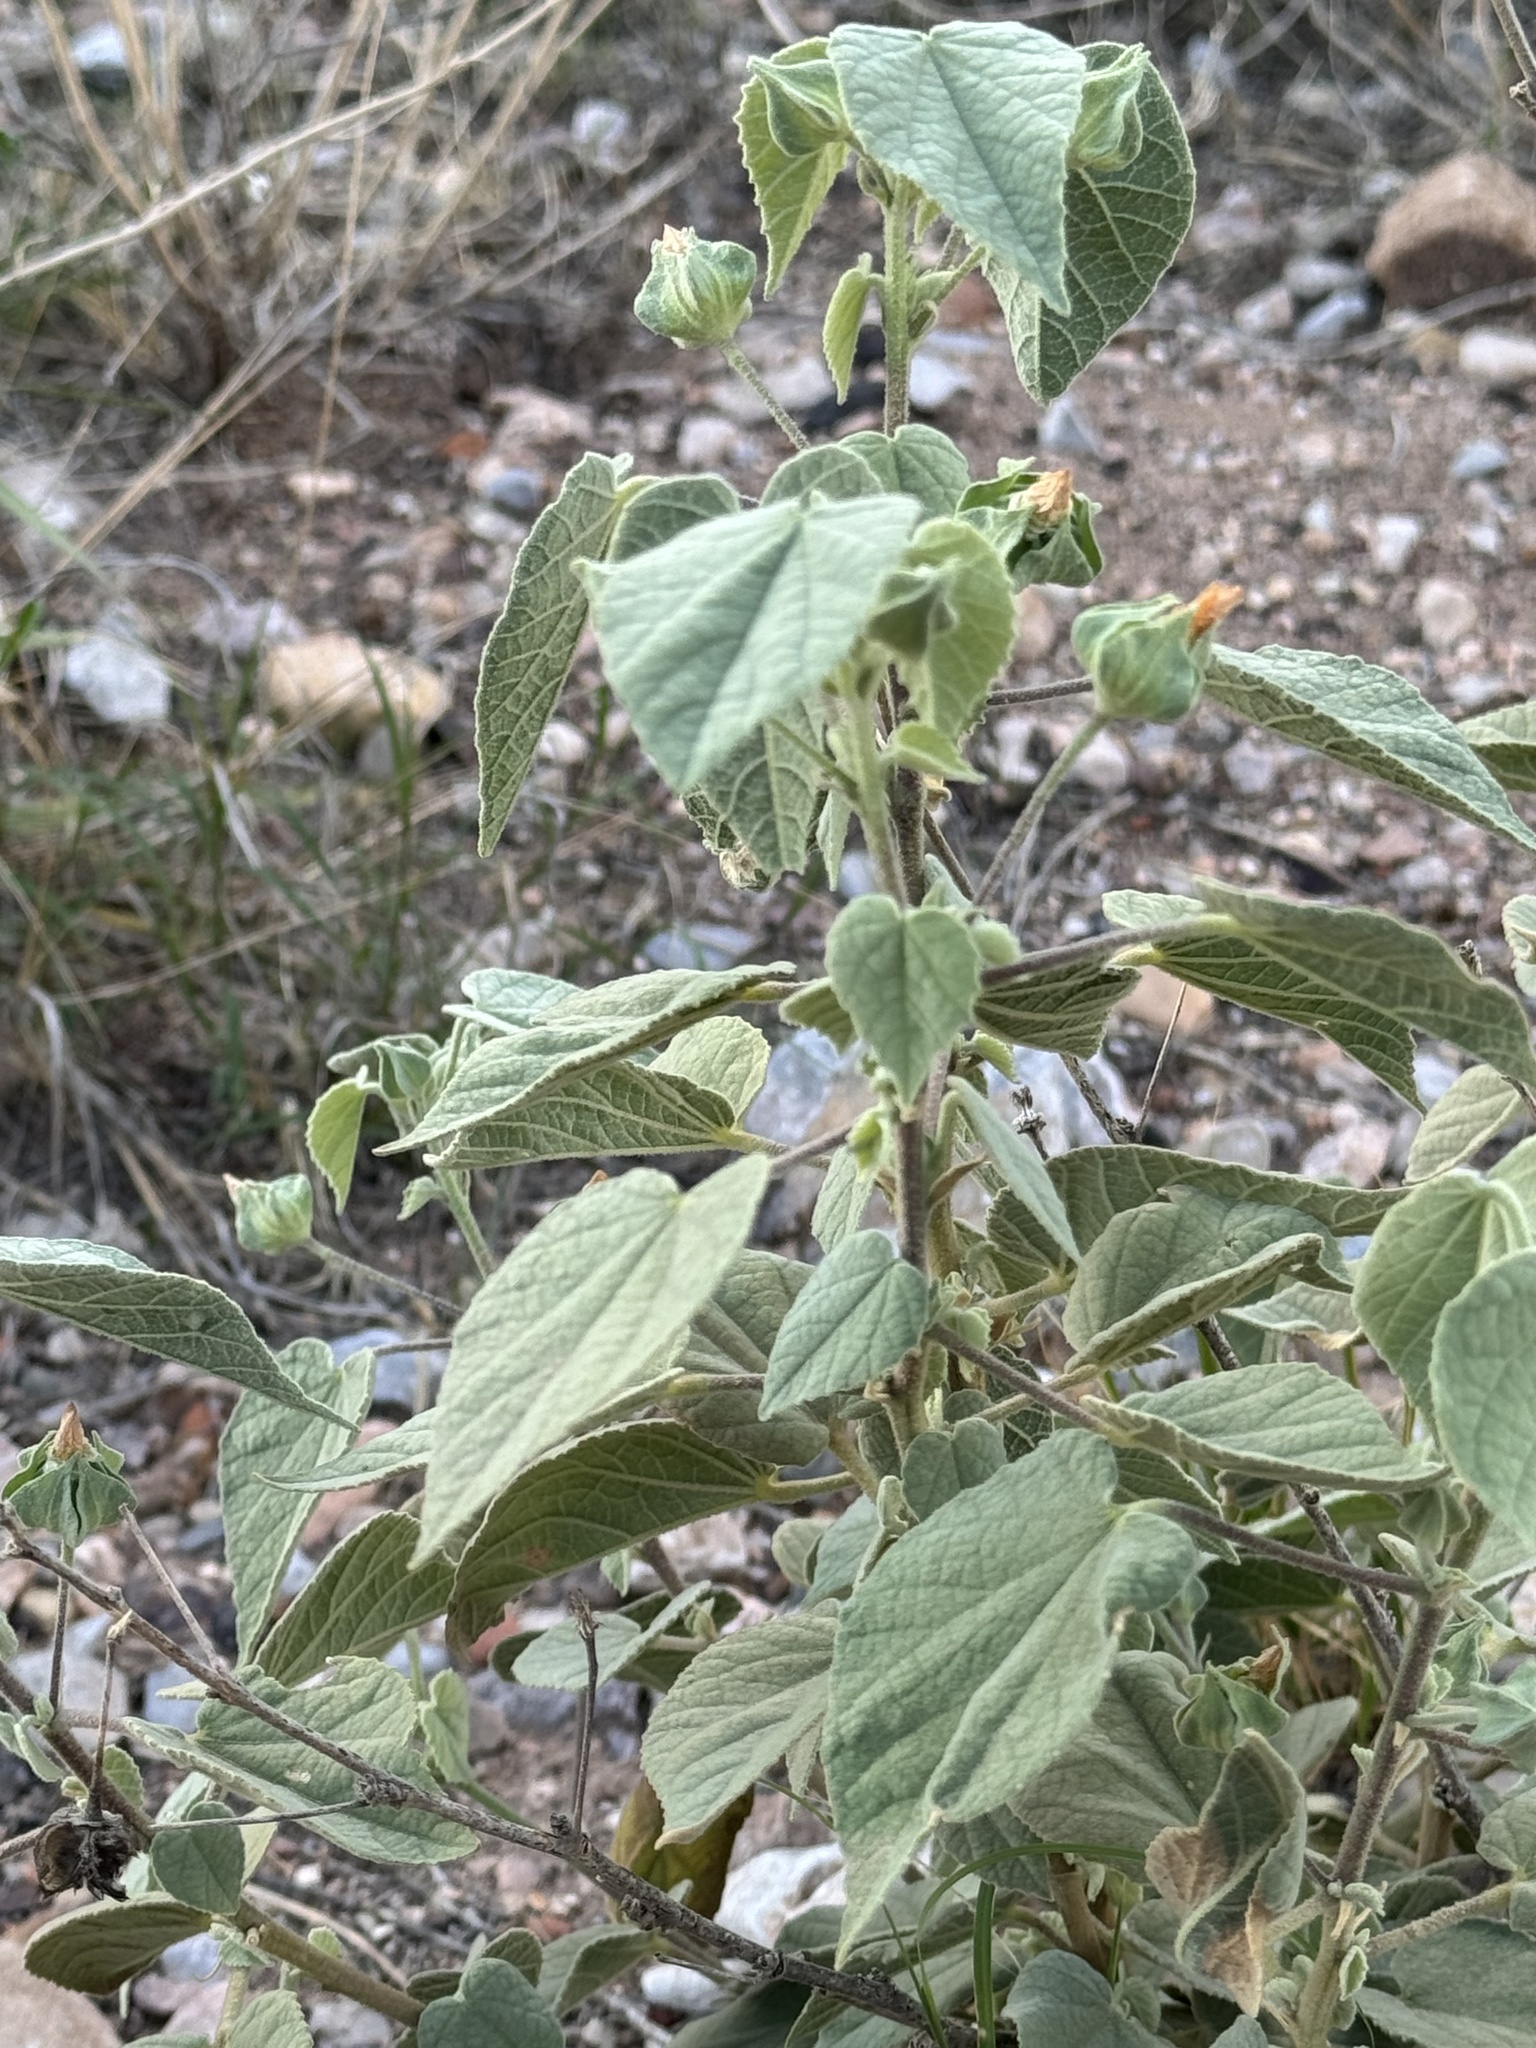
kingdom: Plantae
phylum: Tracheophyta
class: Magnoliopsida
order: Malvales
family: Malvaceae
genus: Abutilon
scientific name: Abutilon abutiloides
